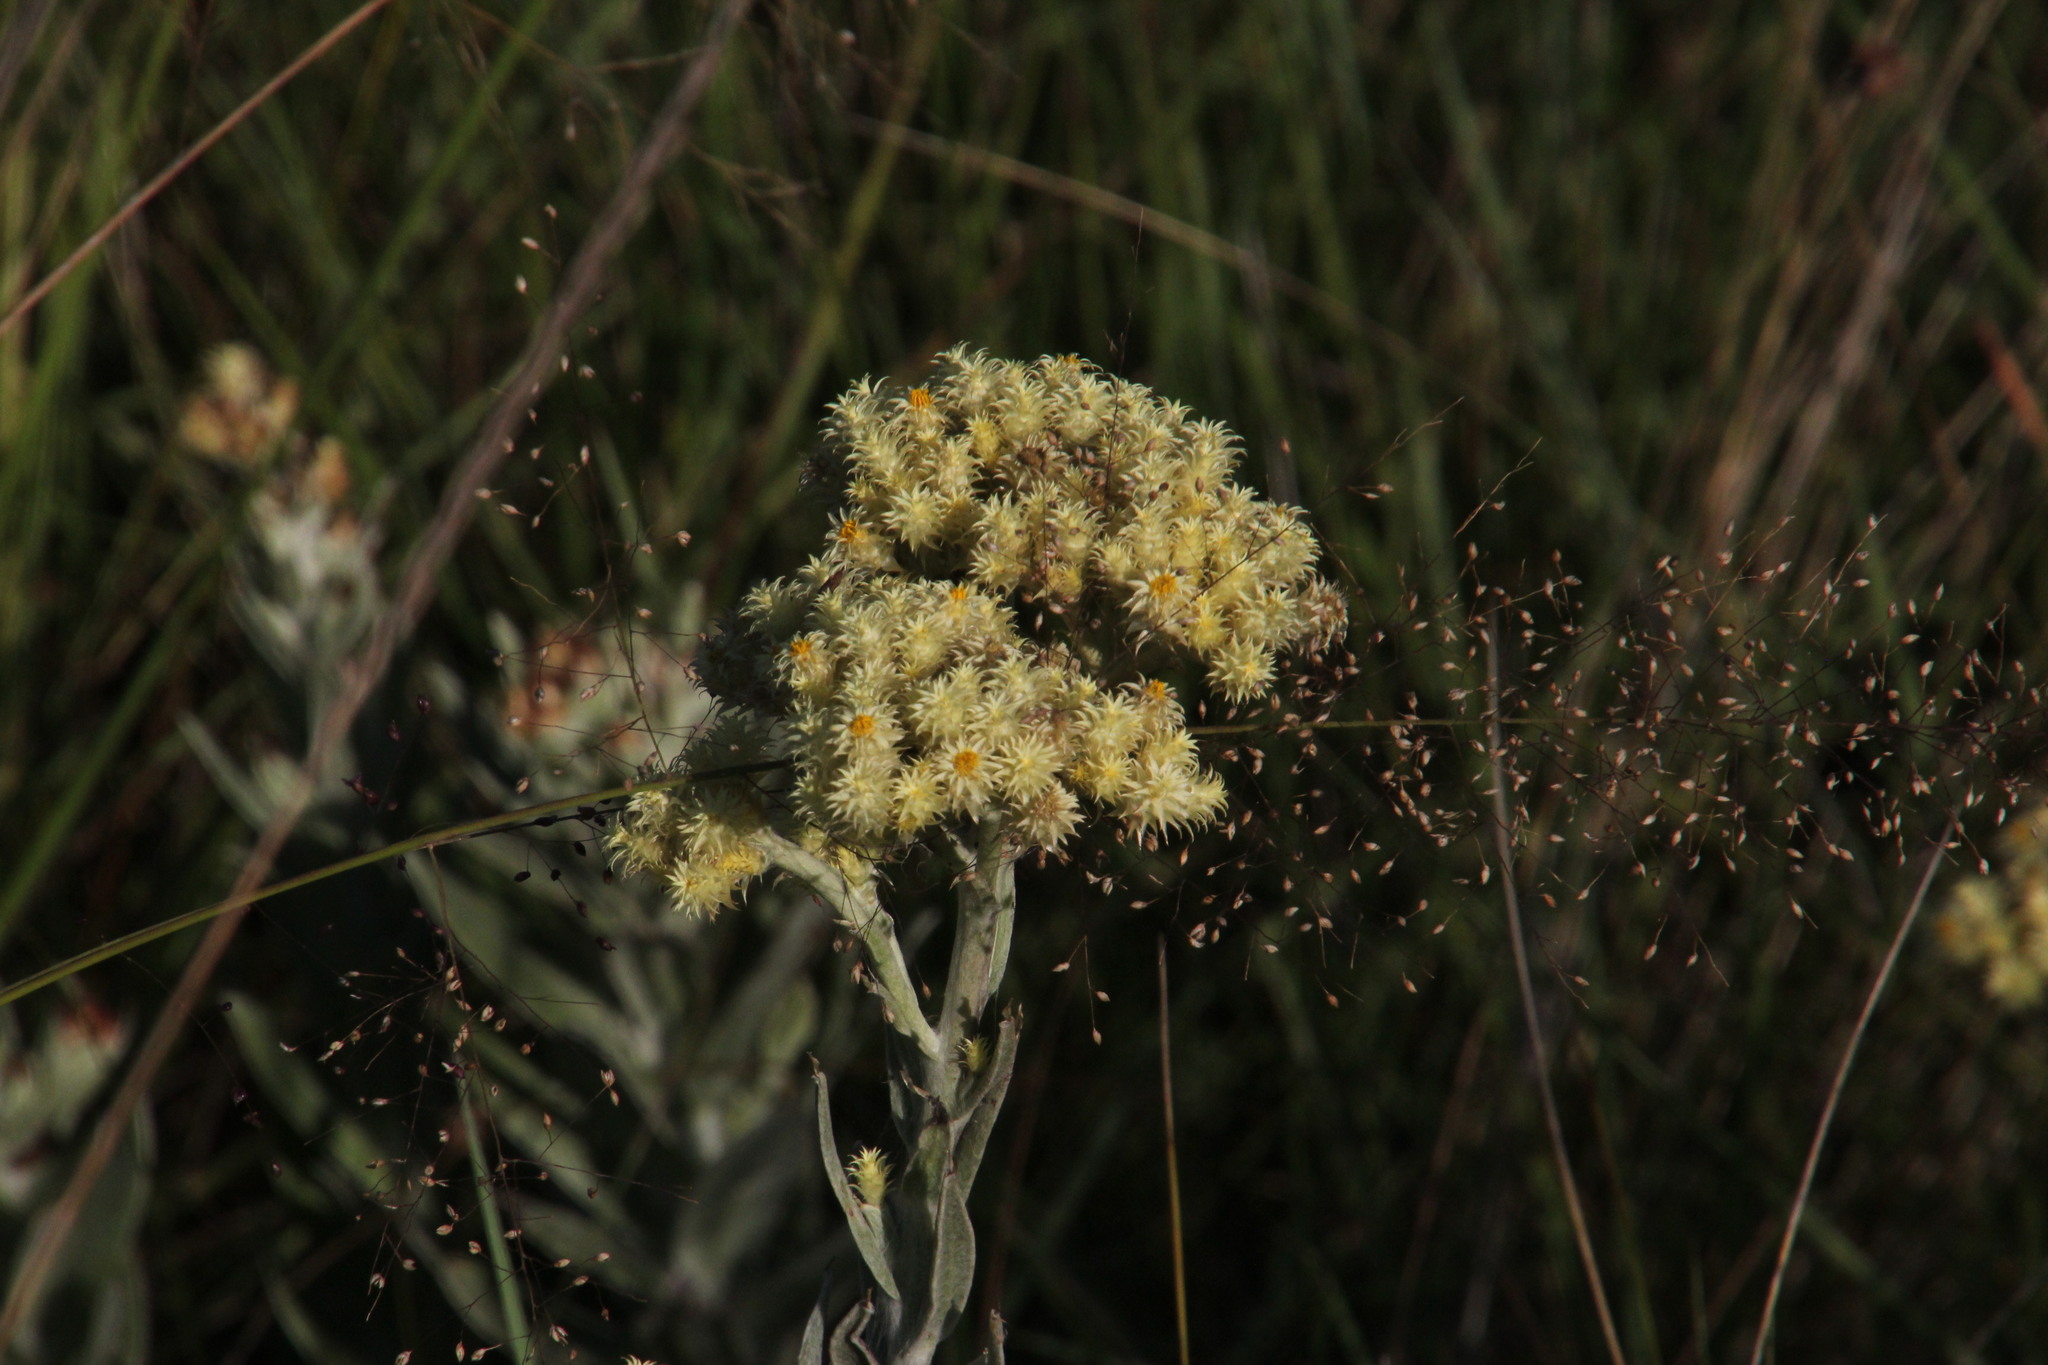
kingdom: Plantae
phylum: Tracheophyta
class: Magnoliopsida
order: Asterales
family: Asteraceae
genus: Helichrysum
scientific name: Helichrysum appendiculatum
